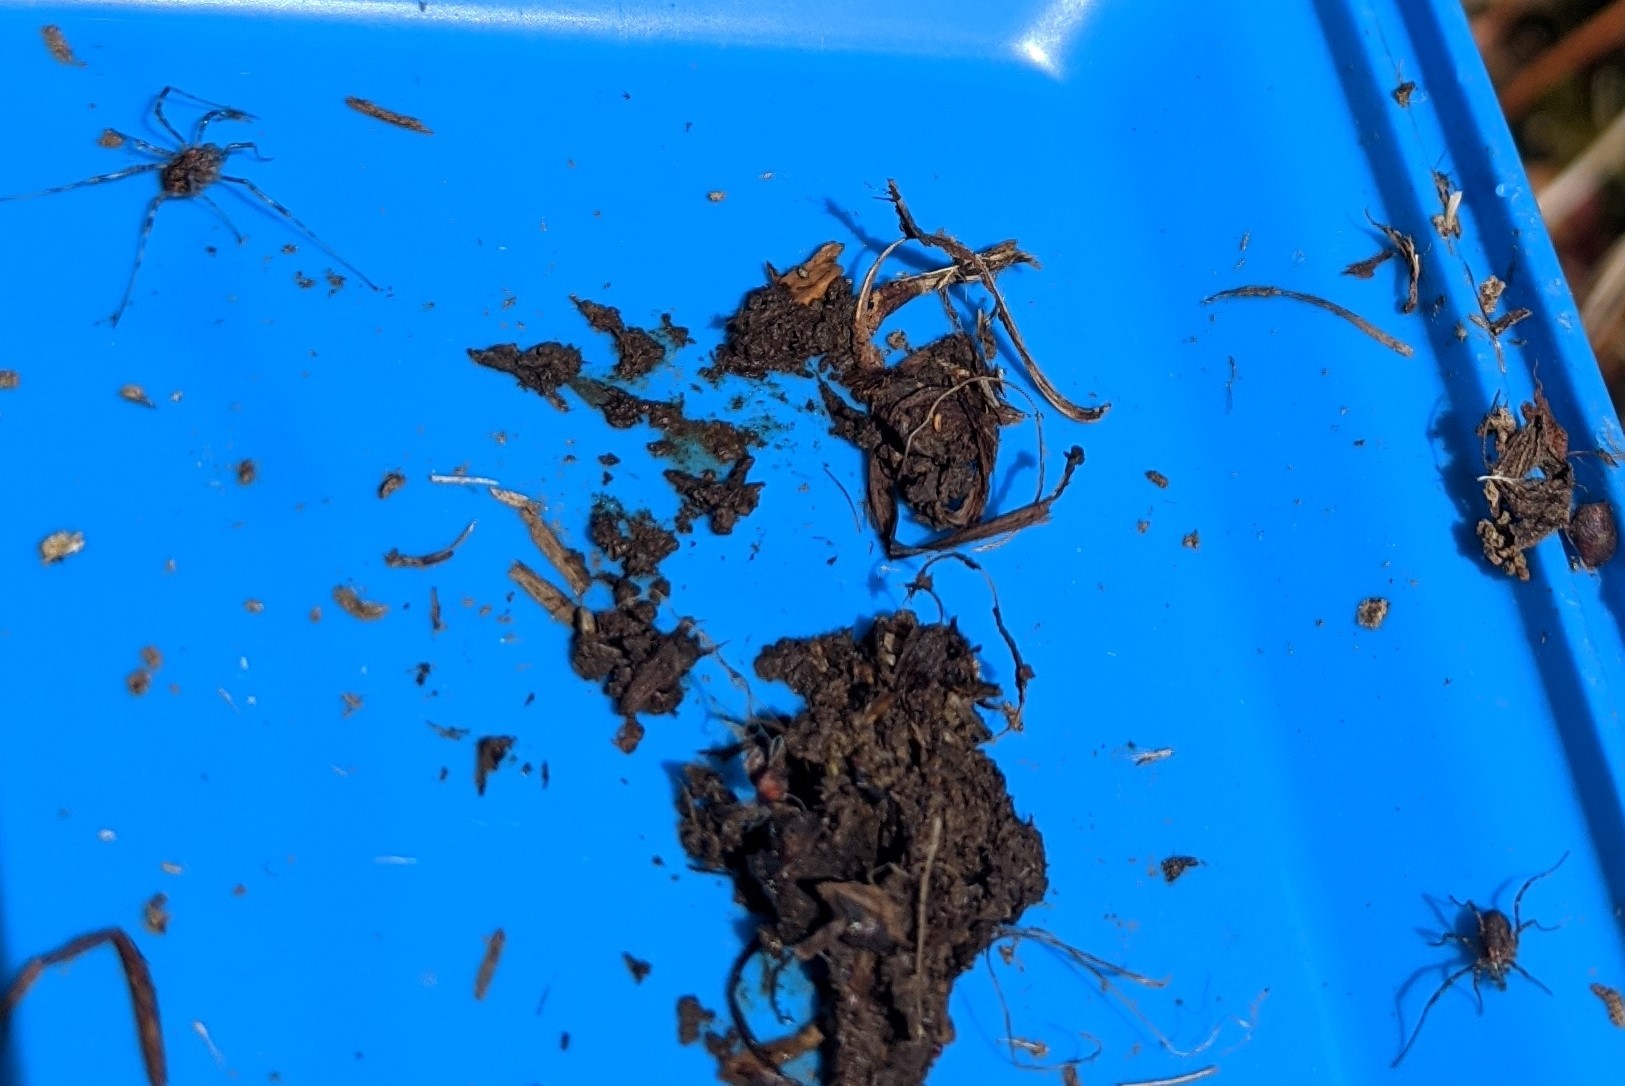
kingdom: Animalia
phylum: Arthropoda
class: Arachnida
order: Opiliones
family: Phalangiidae
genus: Rilaena
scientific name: Rilaena triangularis
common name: Spring harvestman
